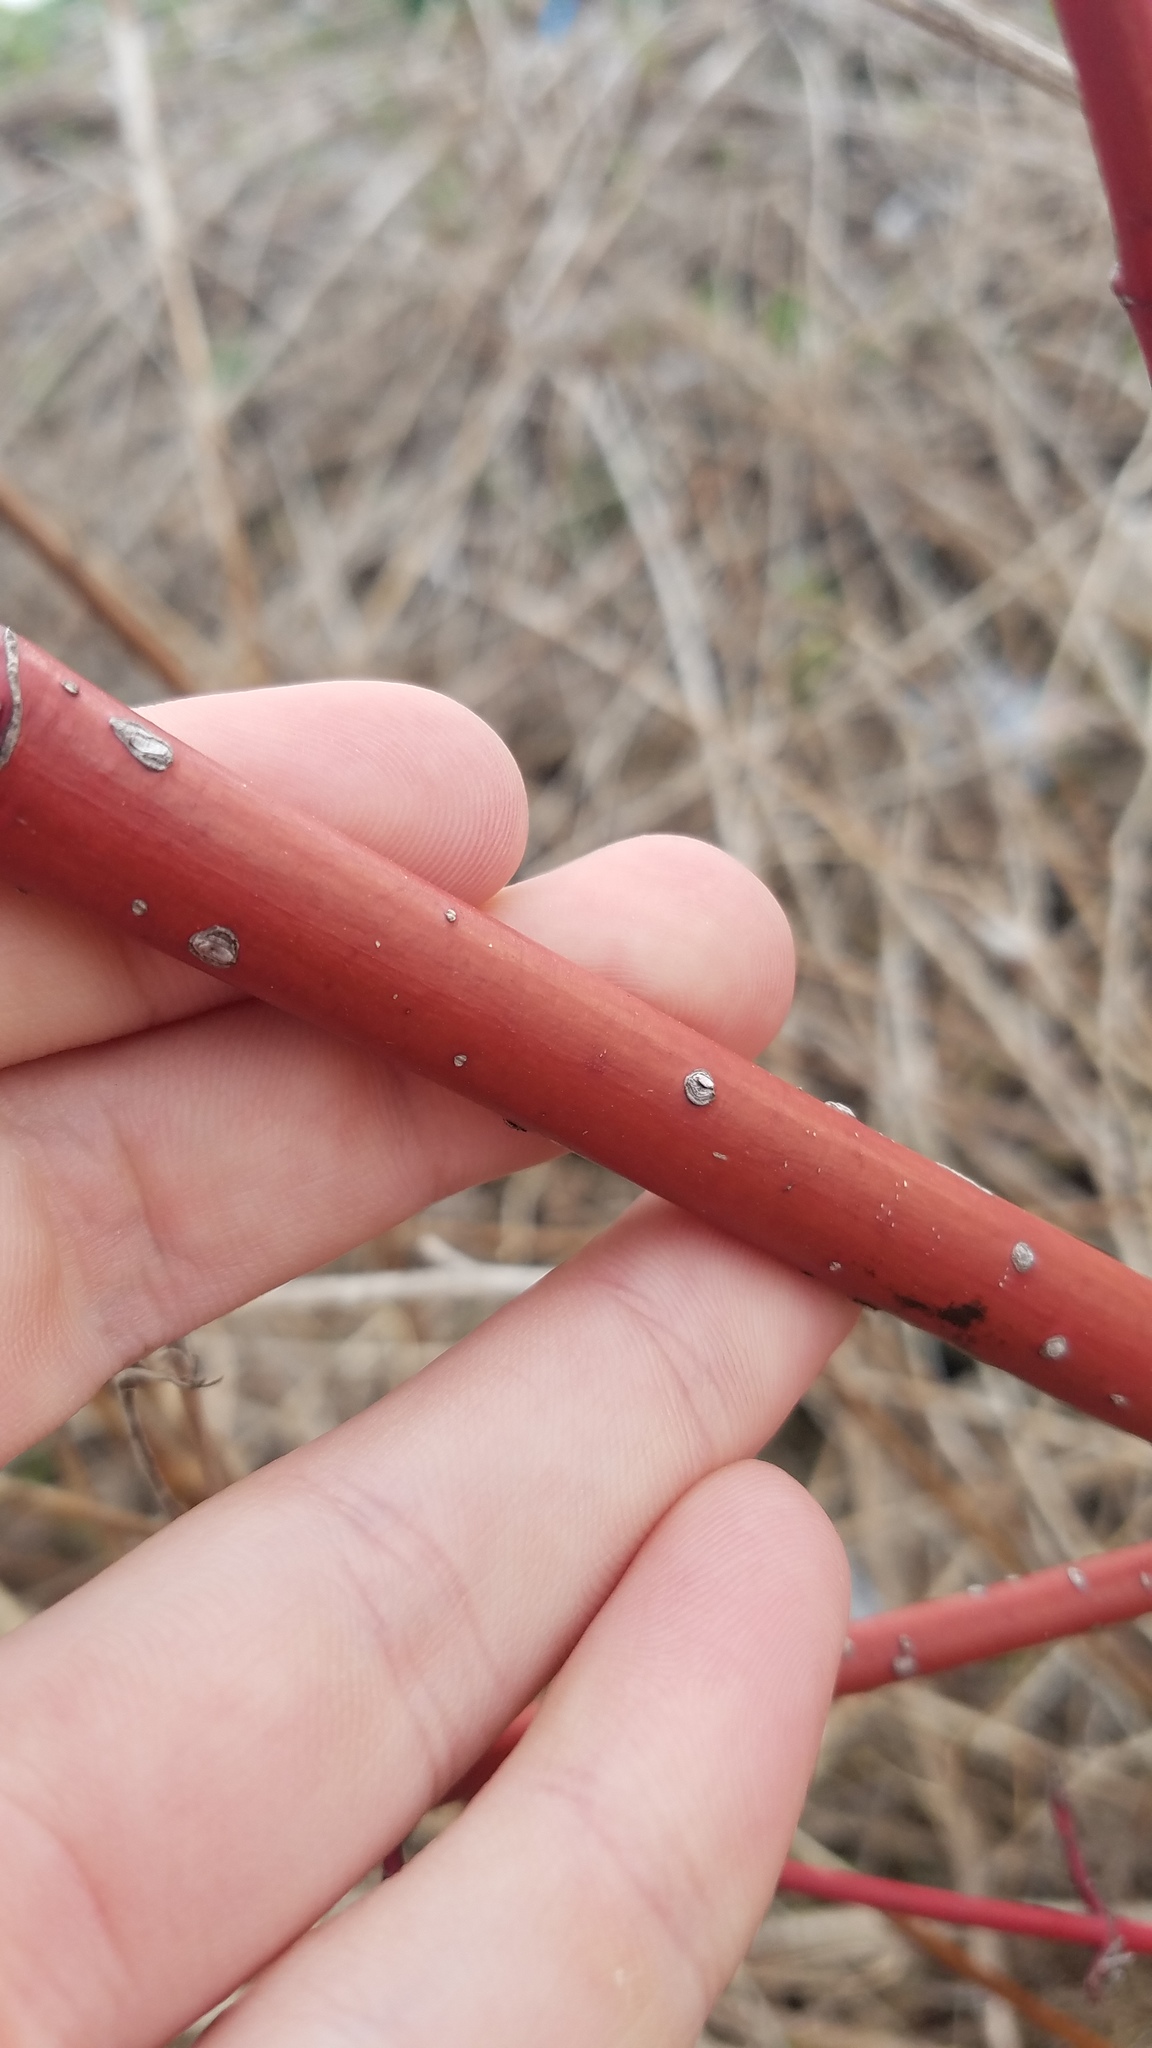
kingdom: Plantae
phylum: Tracheophyta
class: Magnoliopsida
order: Cornales
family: Cornaceae
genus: Cornus
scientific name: Cornus sericea
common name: Red-osier dogwood
